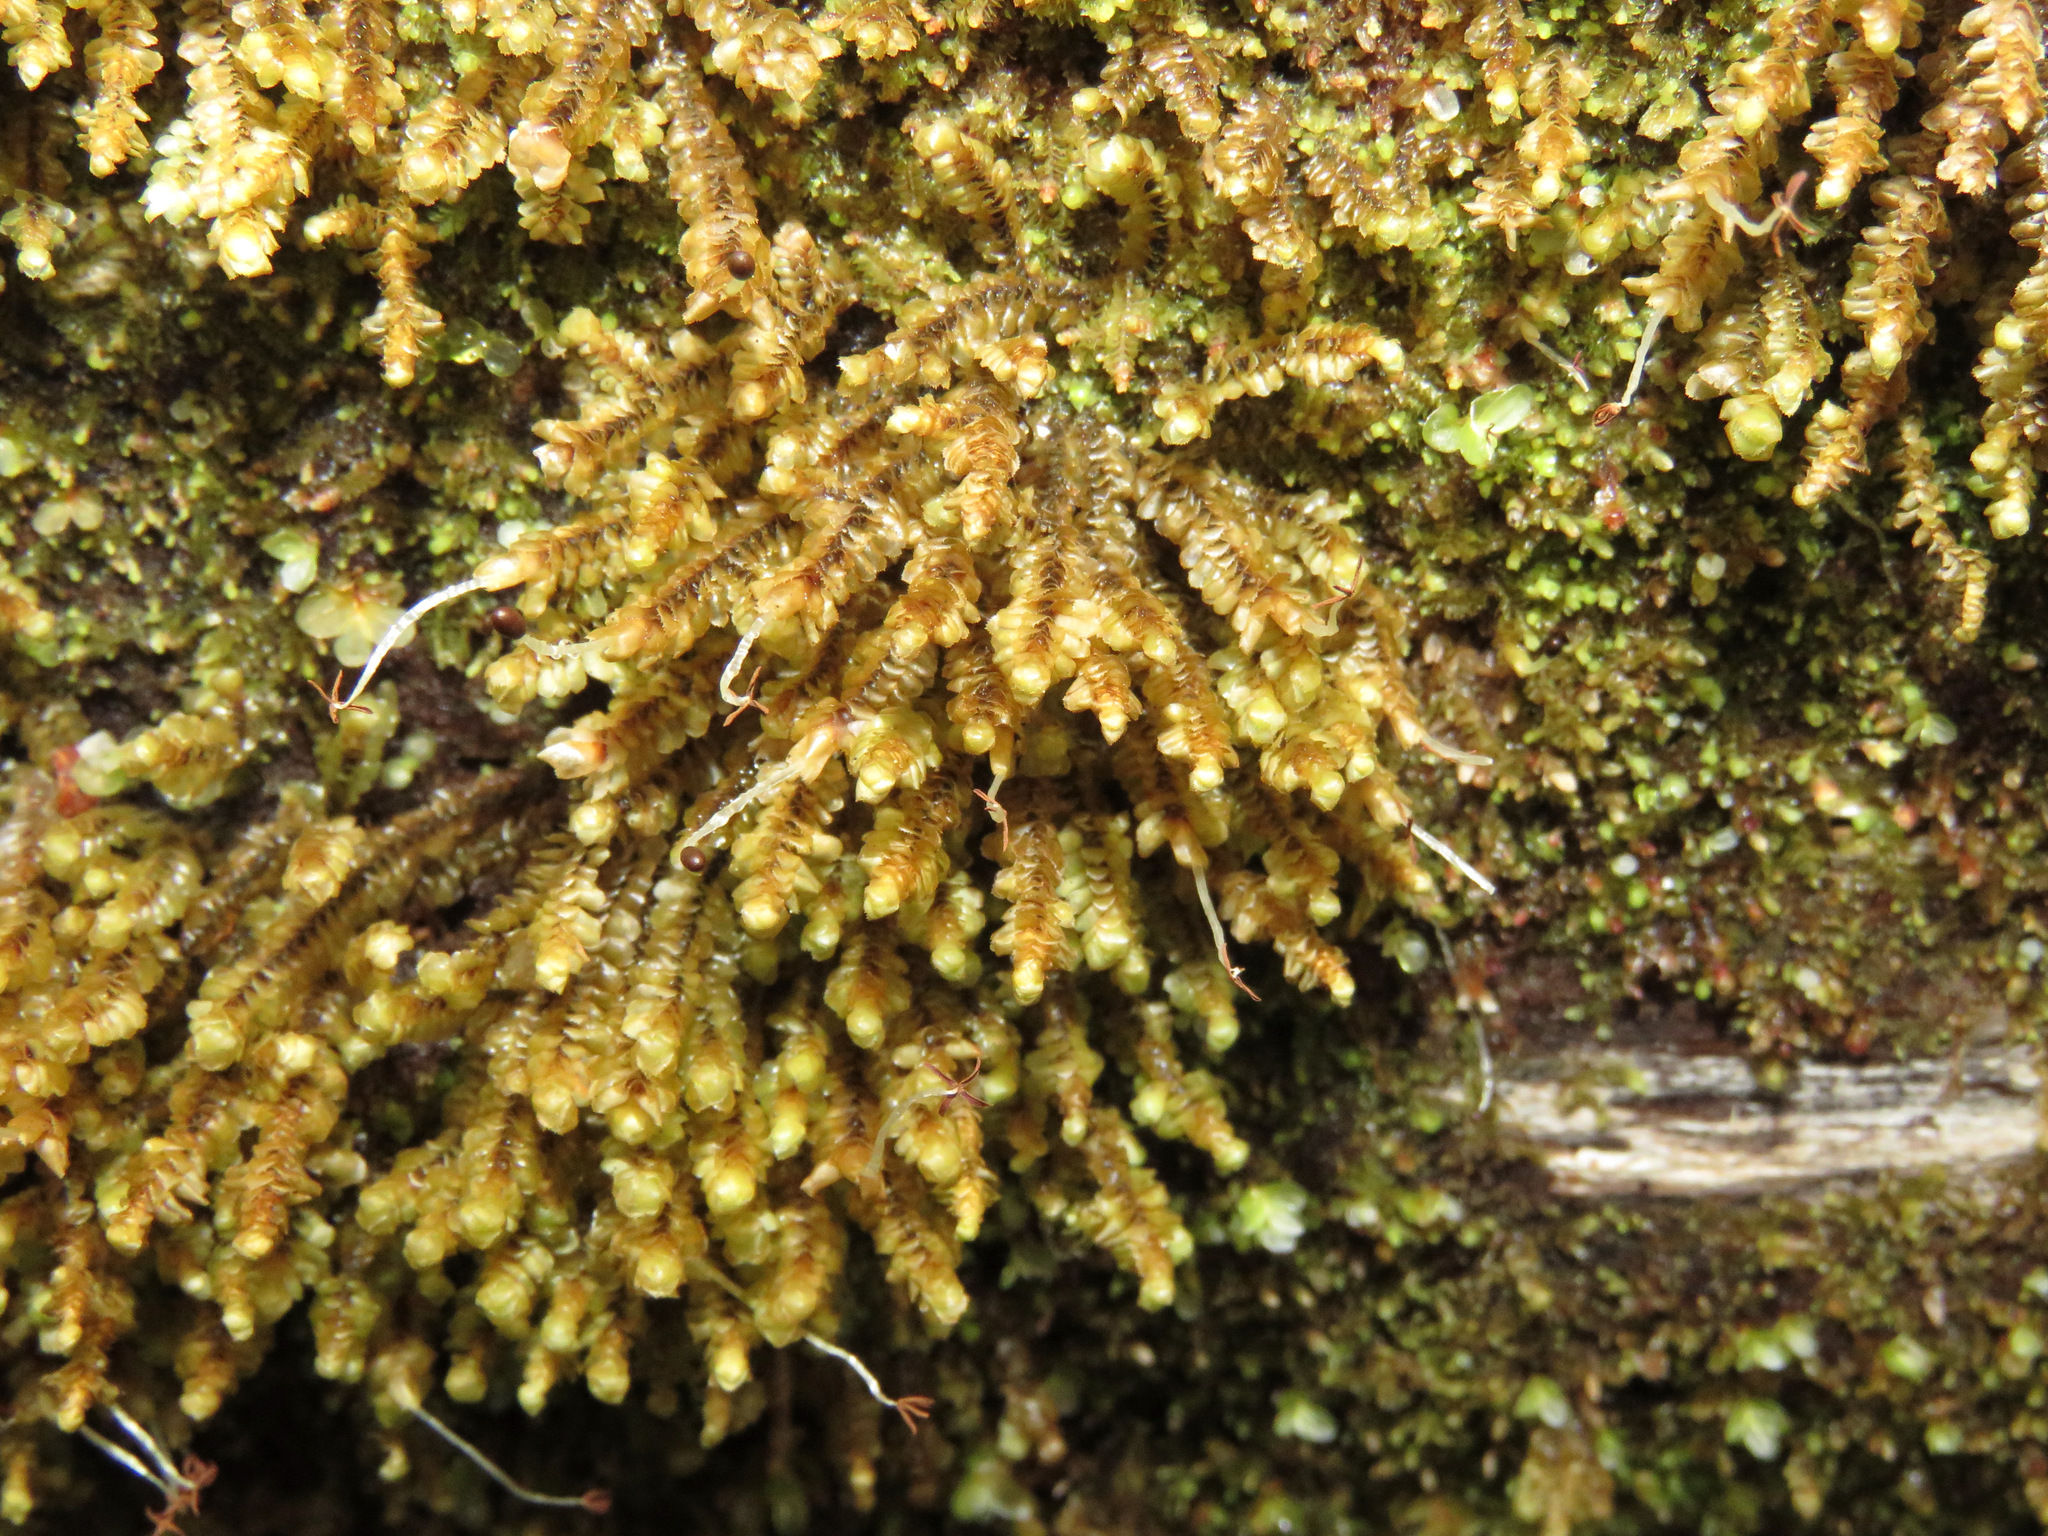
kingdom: Plantae
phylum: Marchantiophyta
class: Jungermanniopsida
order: Jungermanniales
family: Scapaniaceae
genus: Scapania
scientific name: Scapania bolanderi
